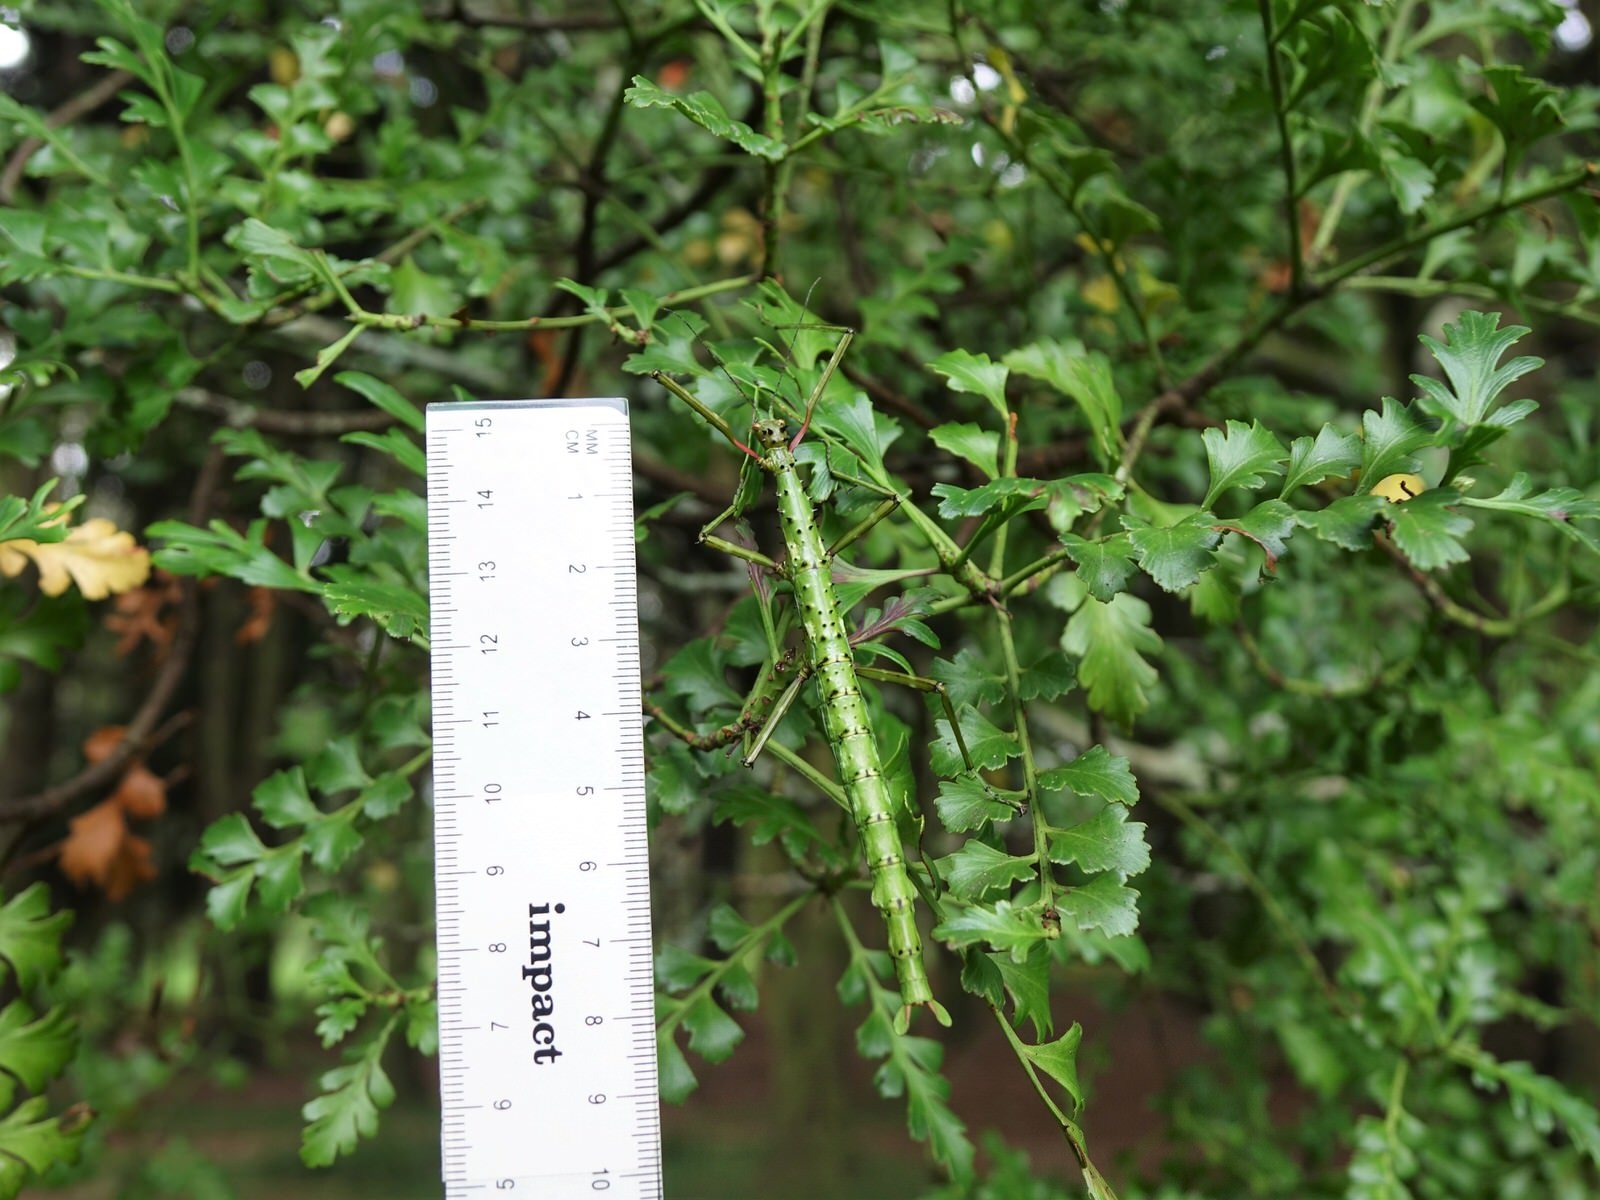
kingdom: Animalia
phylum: Arthropoda
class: Insecta
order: Phasmida
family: Phasmatidae
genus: Acanthoxyla
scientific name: Acanthoxyla prasina
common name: Black-spined stick insect
